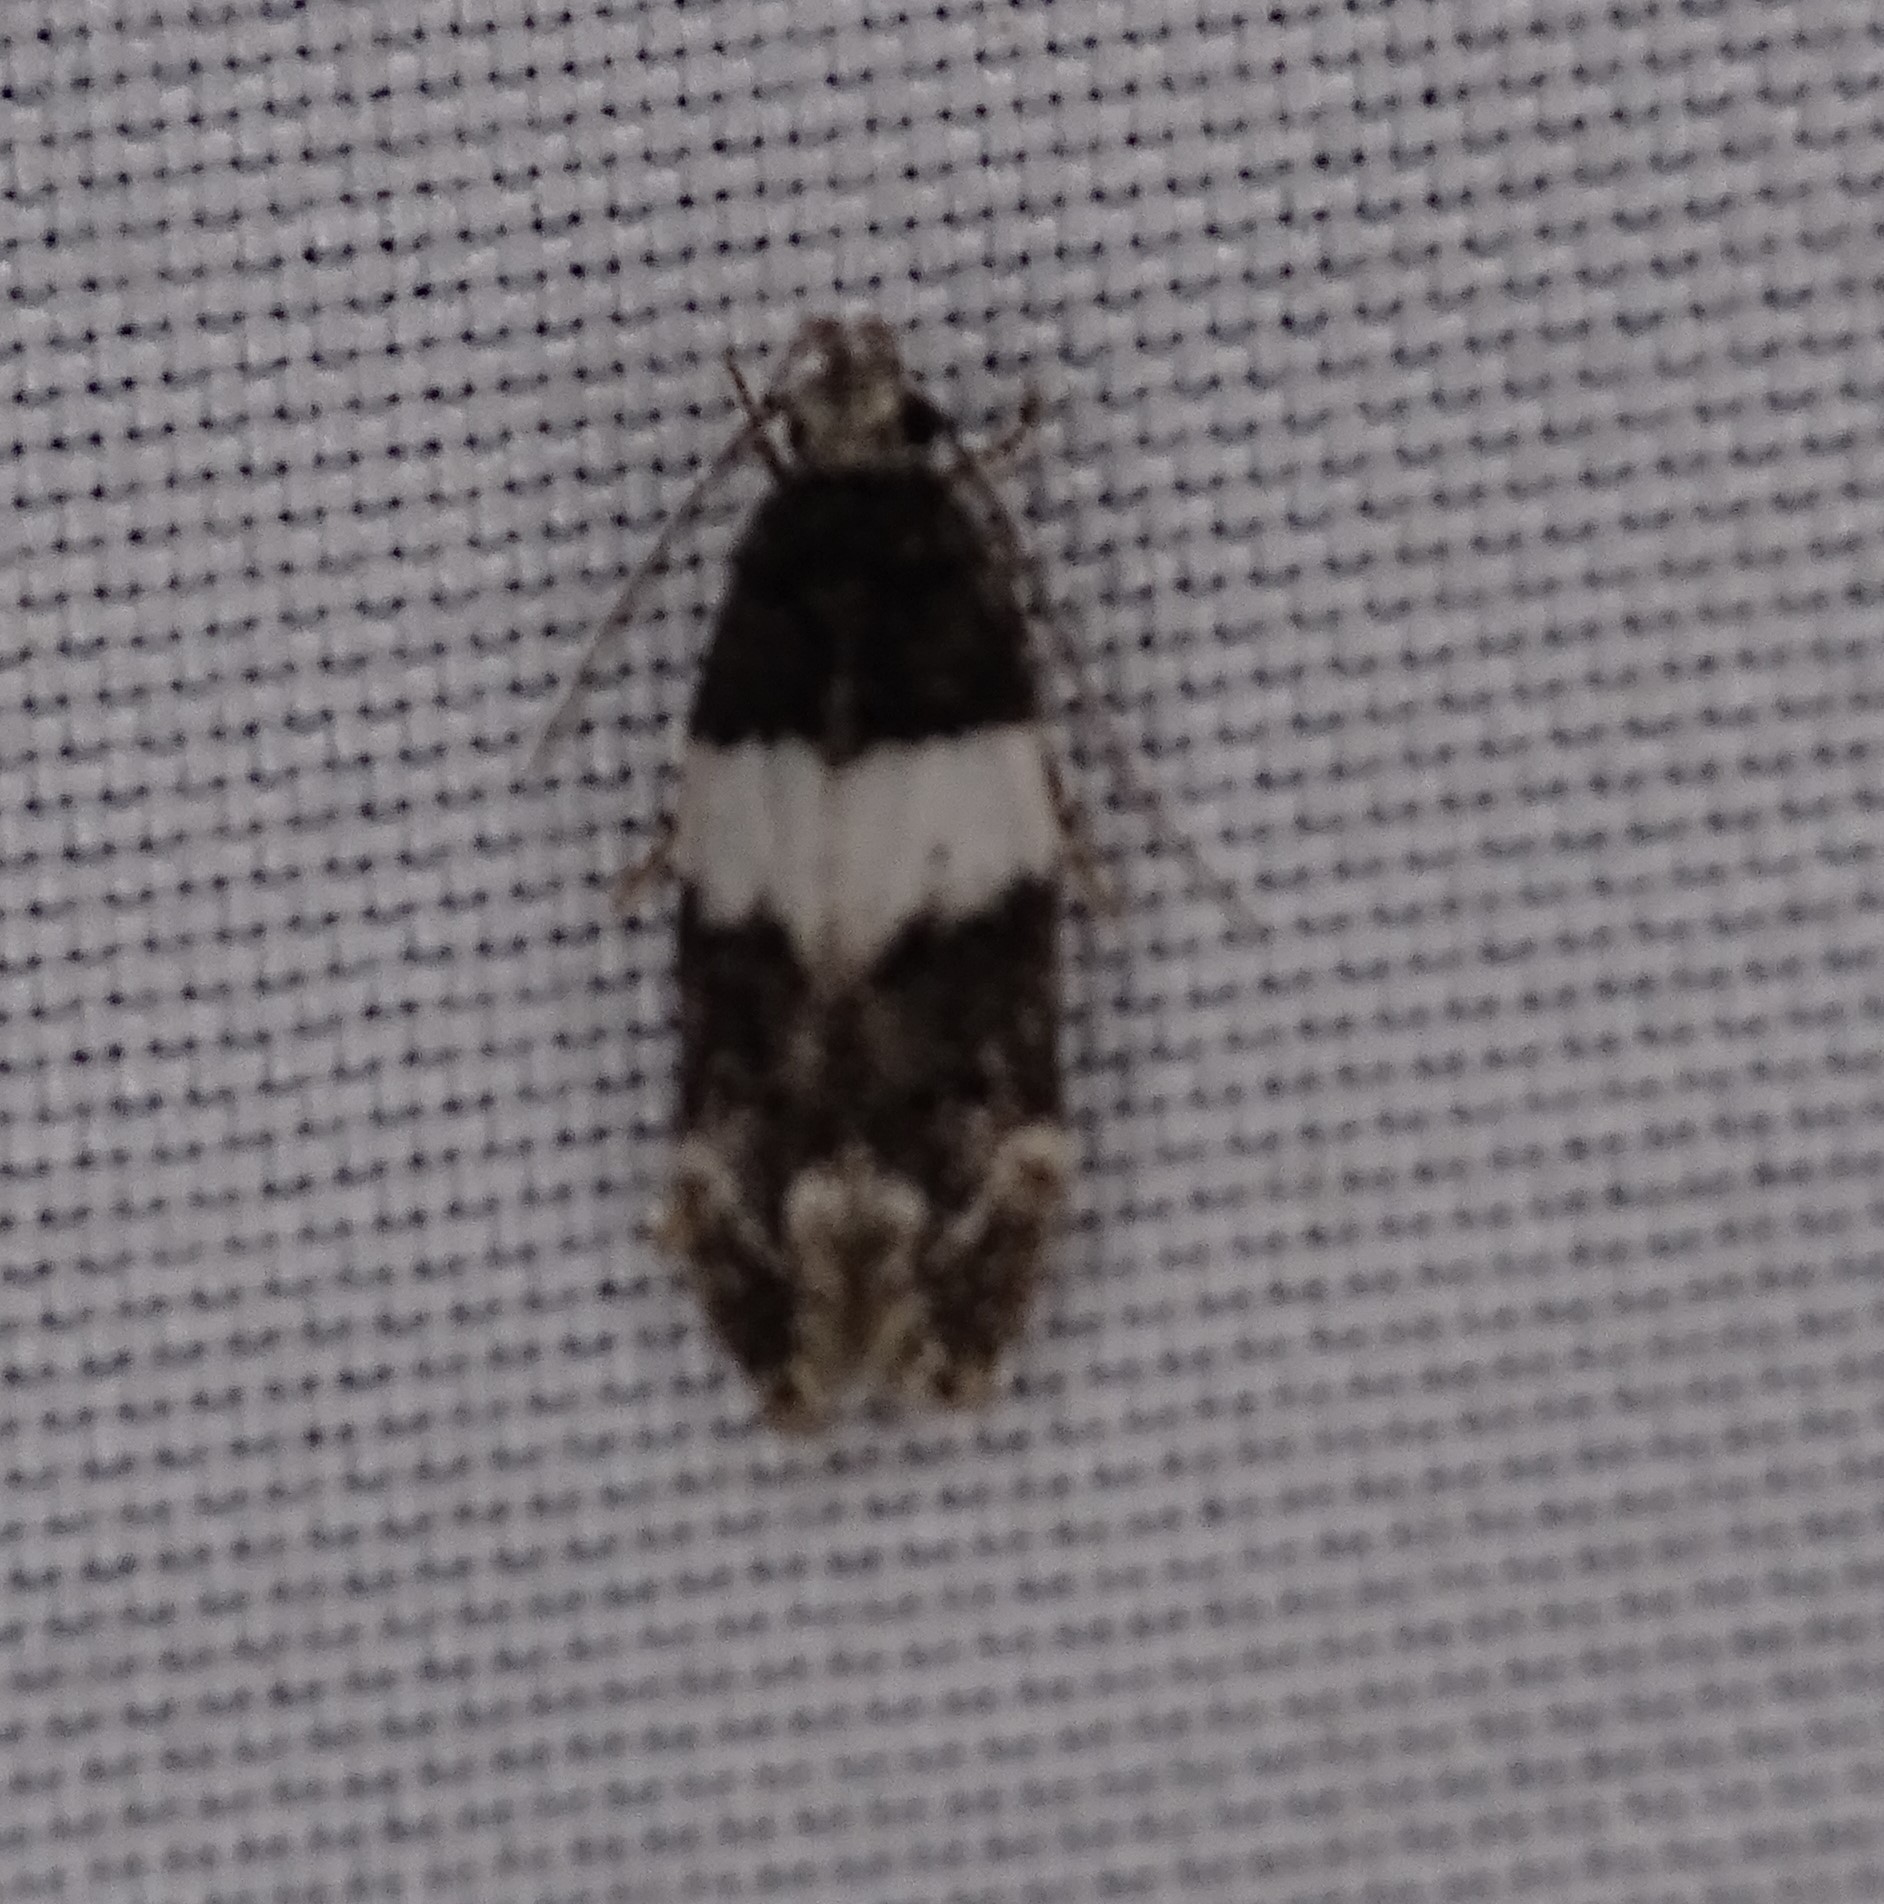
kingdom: Animalia
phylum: Arthropoda
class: Insecta
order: Lepidoptera
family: Gelechiidae
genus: Pubitelphusa
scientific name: Pubitelphusa latifasciella
